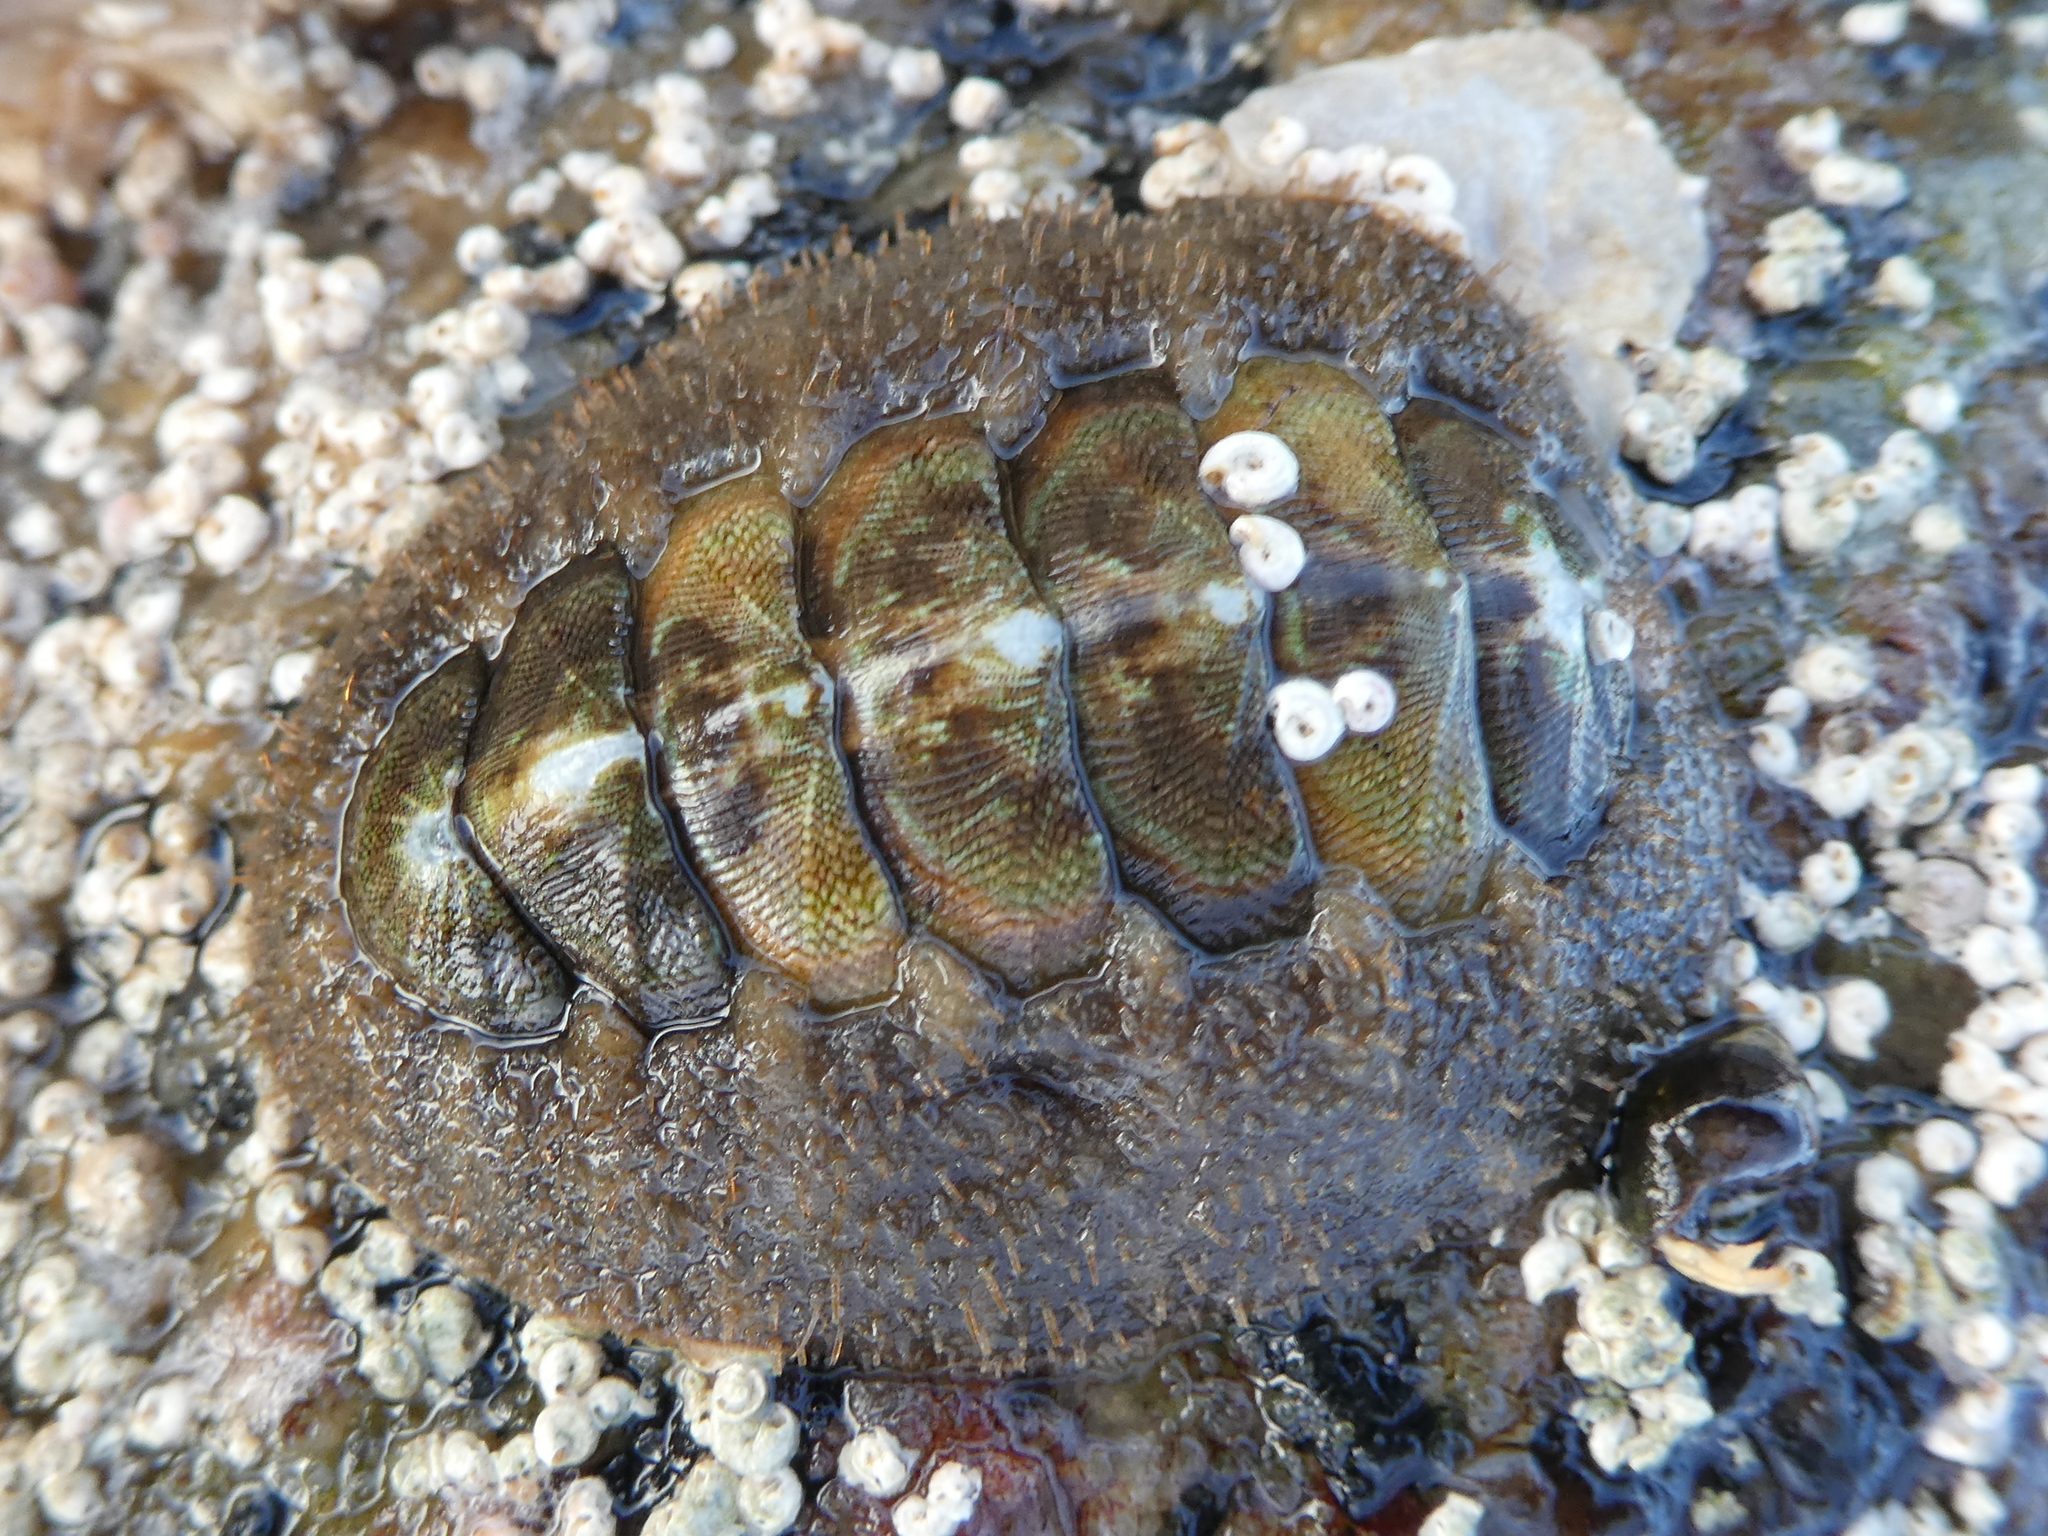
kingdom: Animalia
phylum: Mollusca
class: Polyplacophora
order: Chitonida
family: Mopaliidae
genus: Mopalia
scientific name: Mopalia ciliata
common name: Hairy chiton
